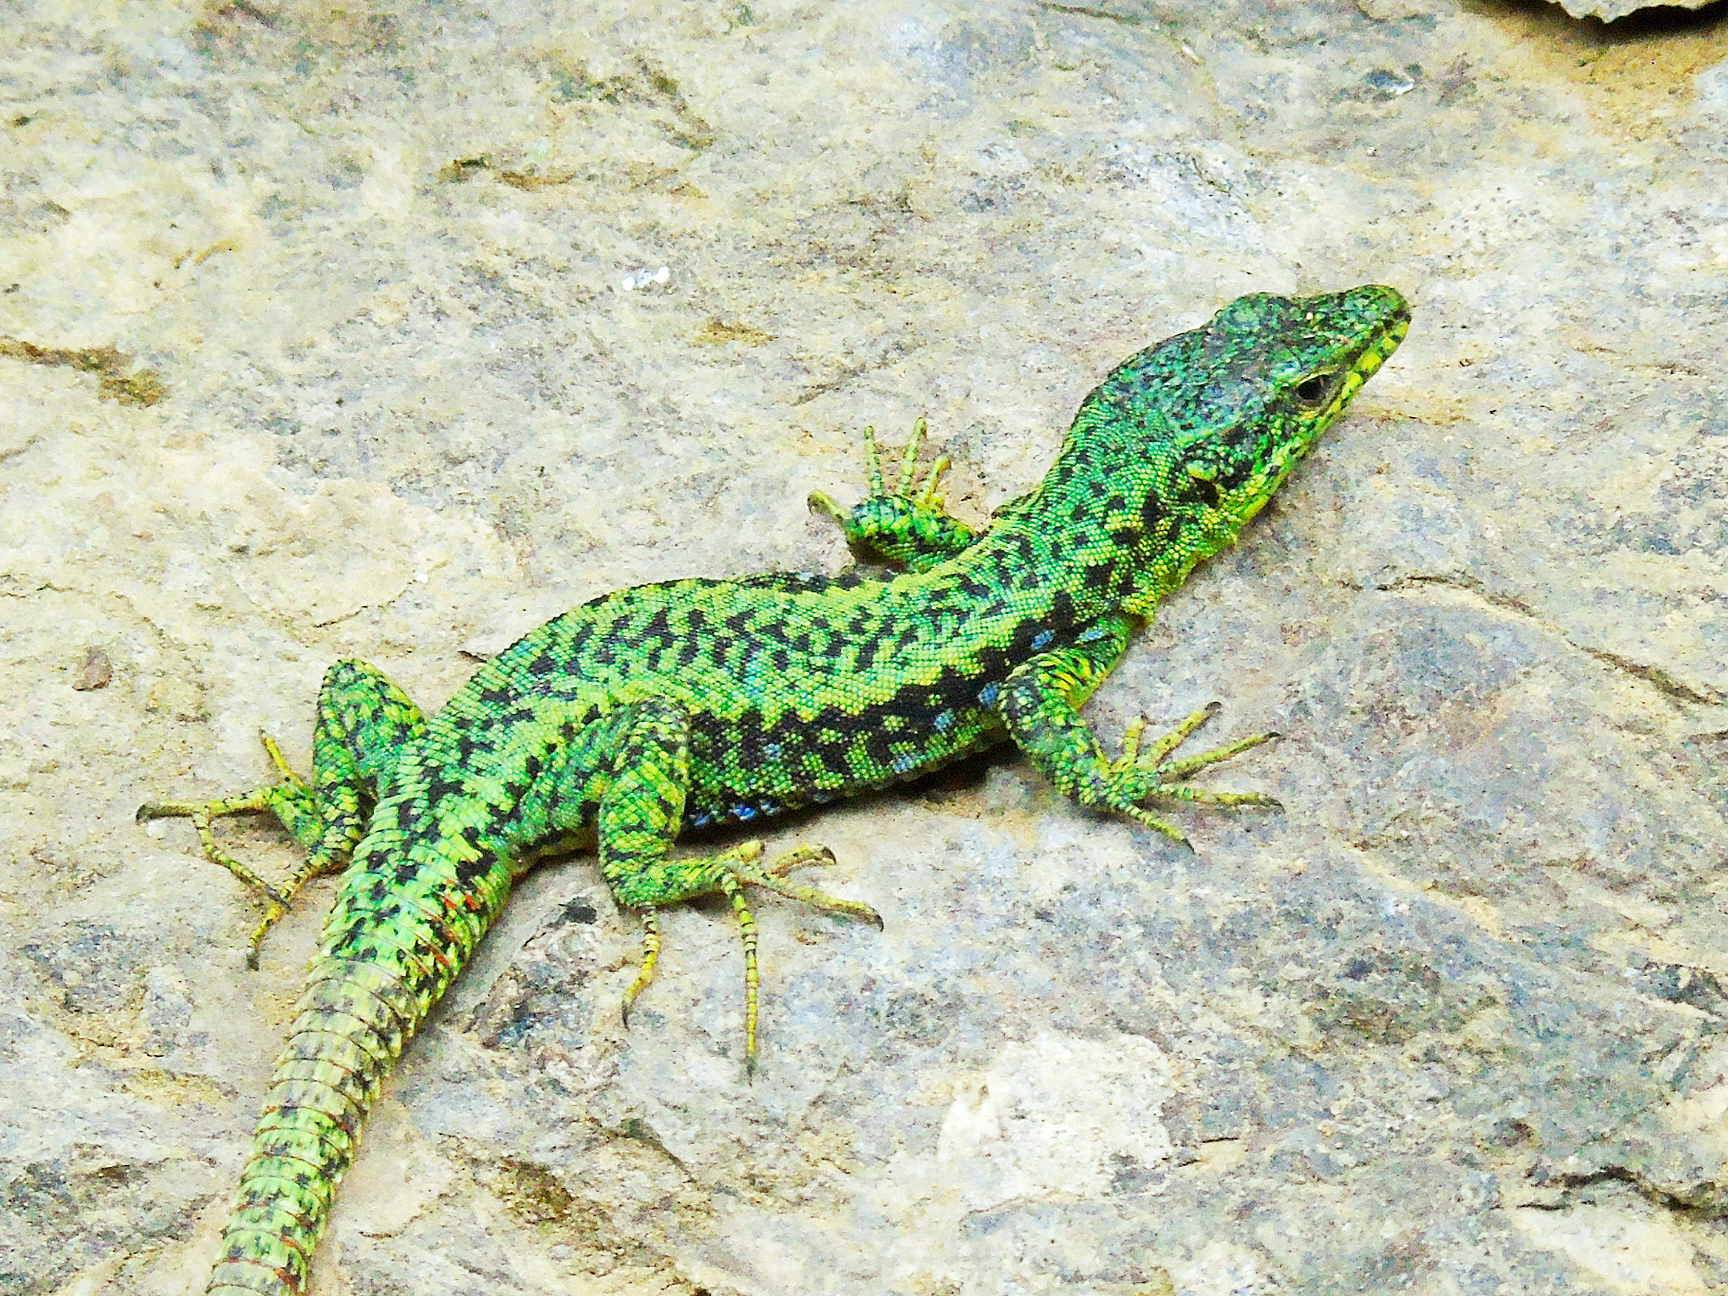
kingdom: Animalia
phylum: Chordata
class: Squamata
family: Lacertidae
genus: Darevskia
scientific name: Darevskia rudis
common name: Spiny-tailed lizard
